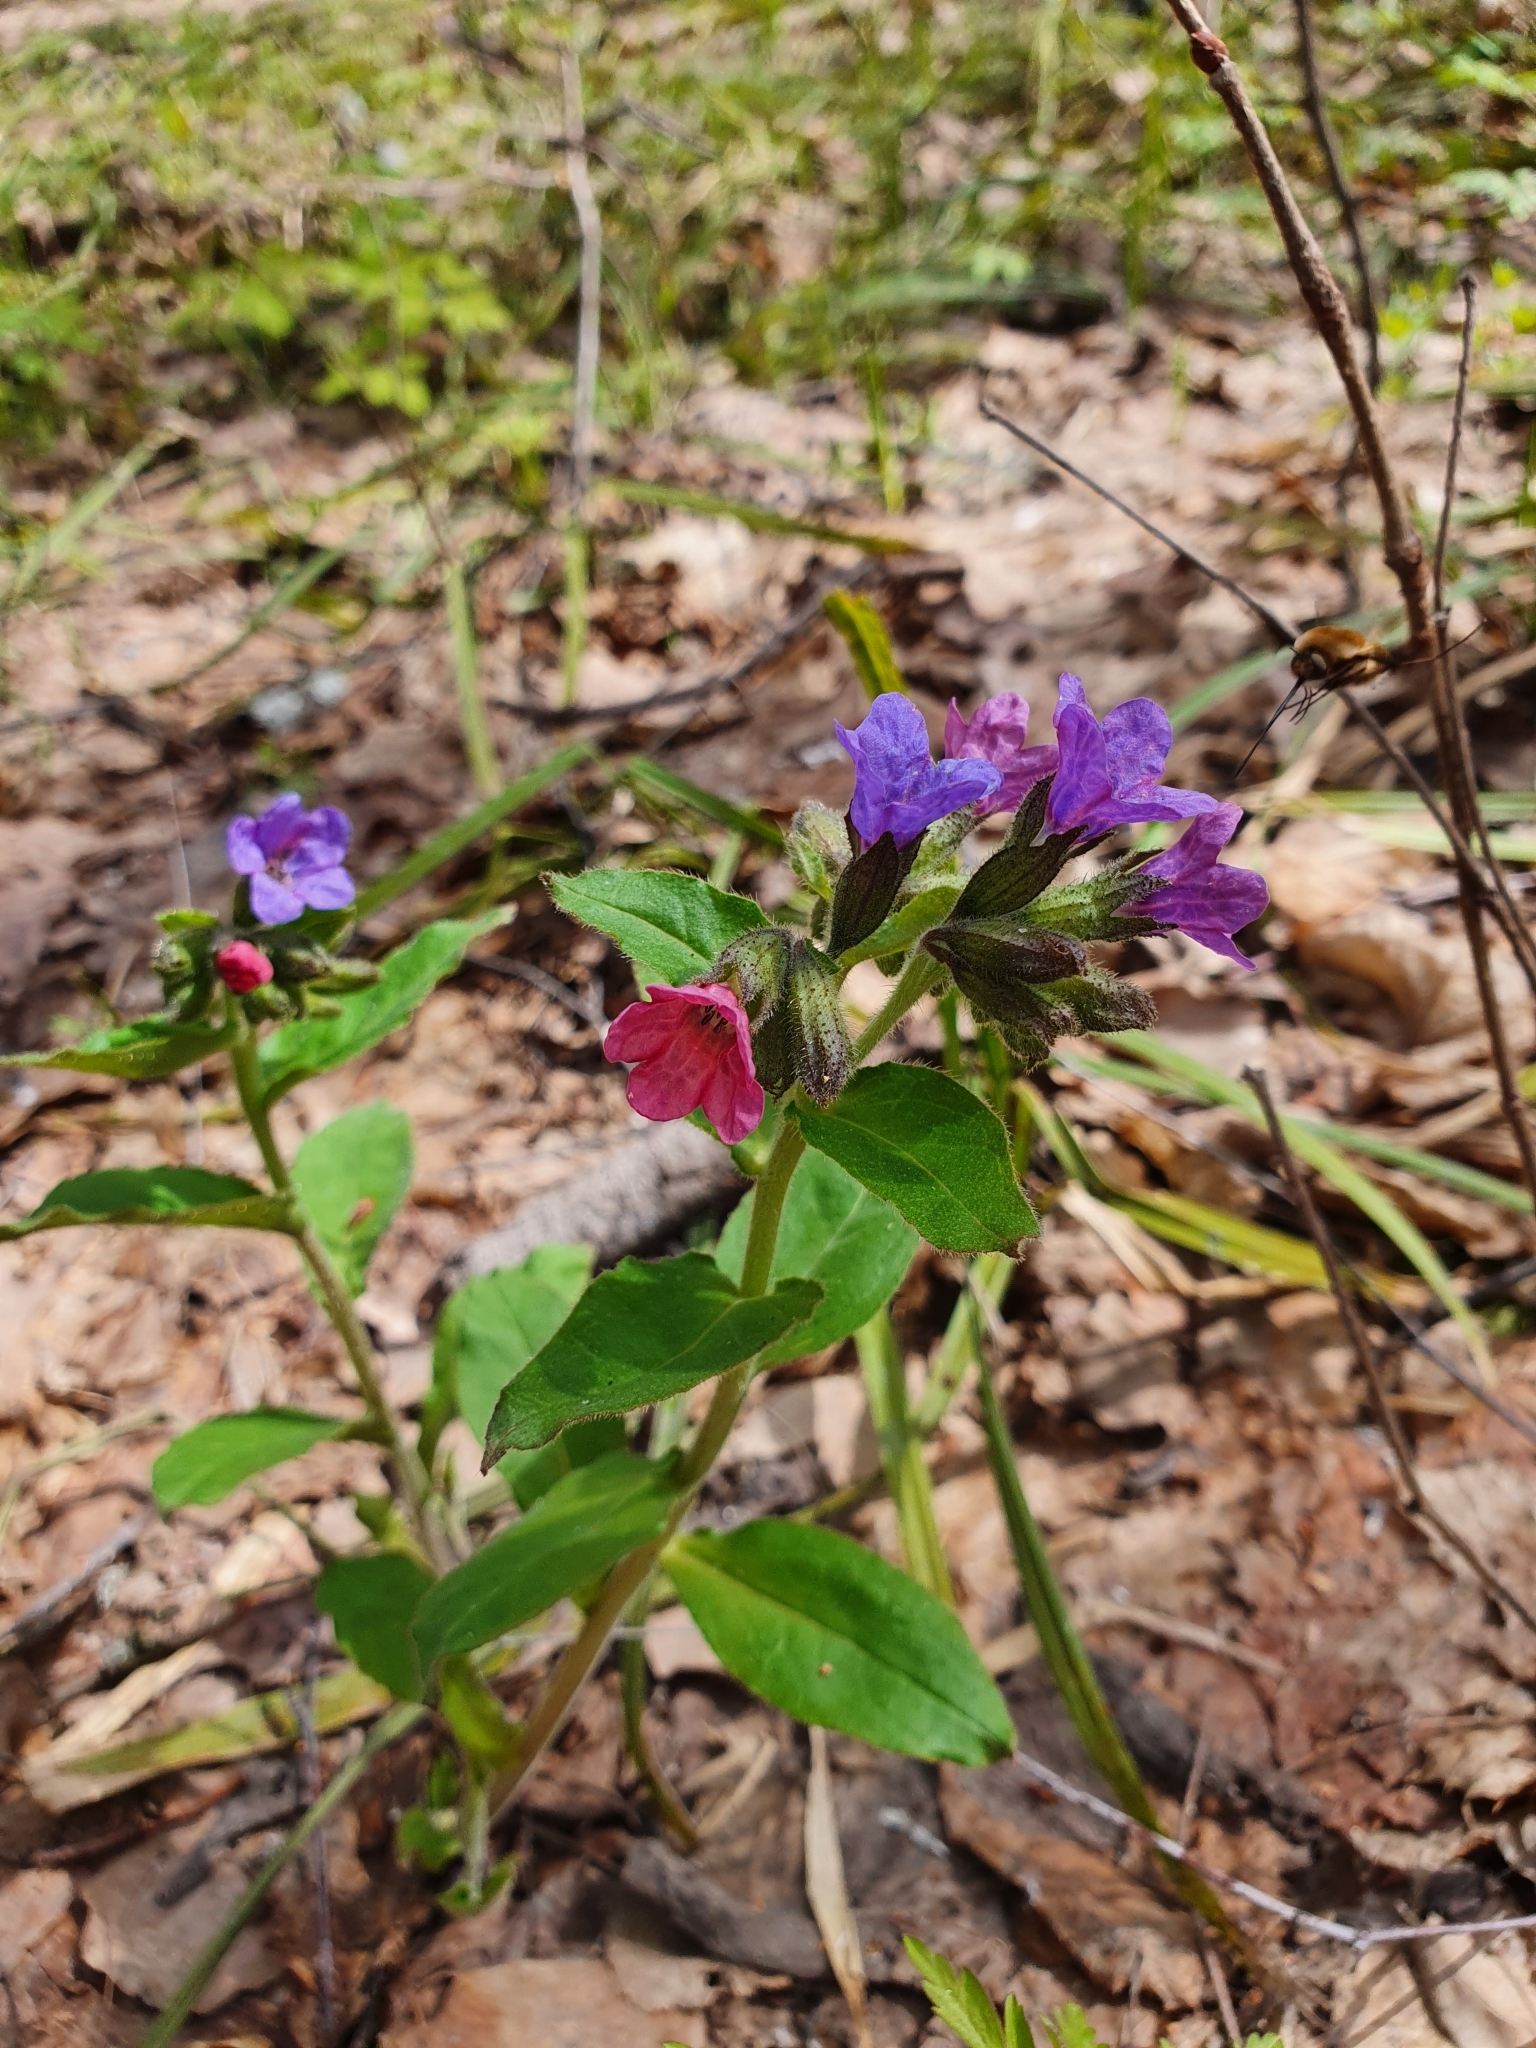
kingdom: Plantae
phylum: Tracheophyta
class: Magnoliopsida
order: Boraginales
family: Boraginaceae
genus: Pulmonaria
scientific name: Pulmonaria obscura
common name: Suffolk lungwort
